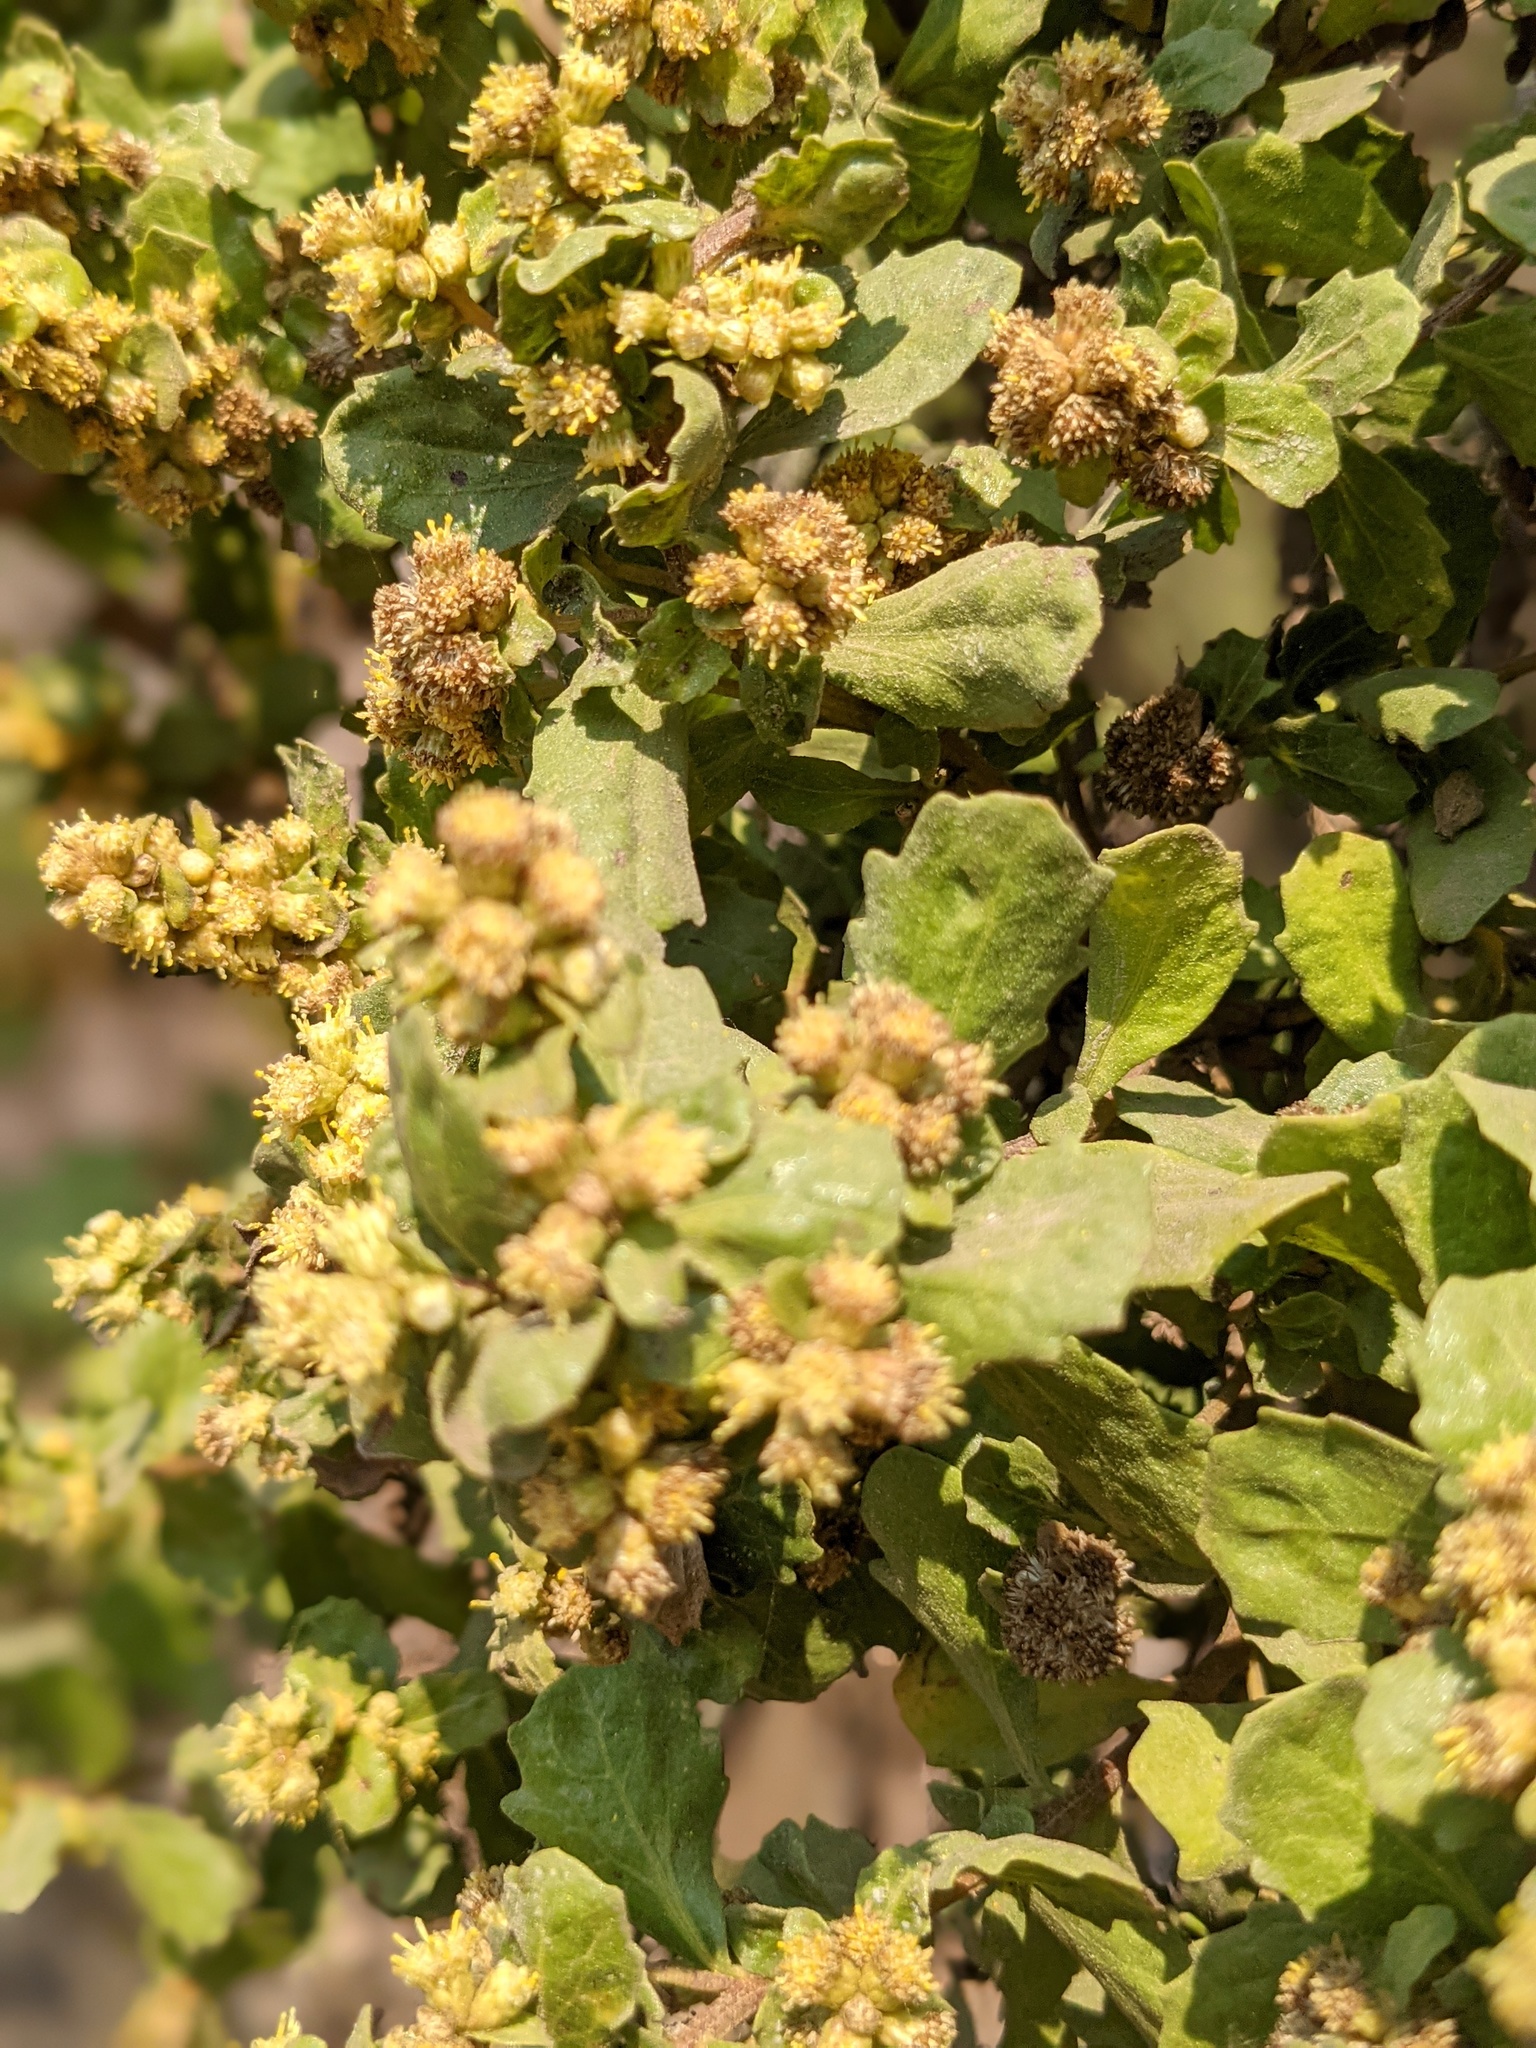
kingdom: Plantae
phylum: Tracheophyta
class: Magnoliopsida
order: Asterales
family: Asteraceae
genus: Baccharis
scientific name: Baccharis pilularis
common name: Coyotebrush
